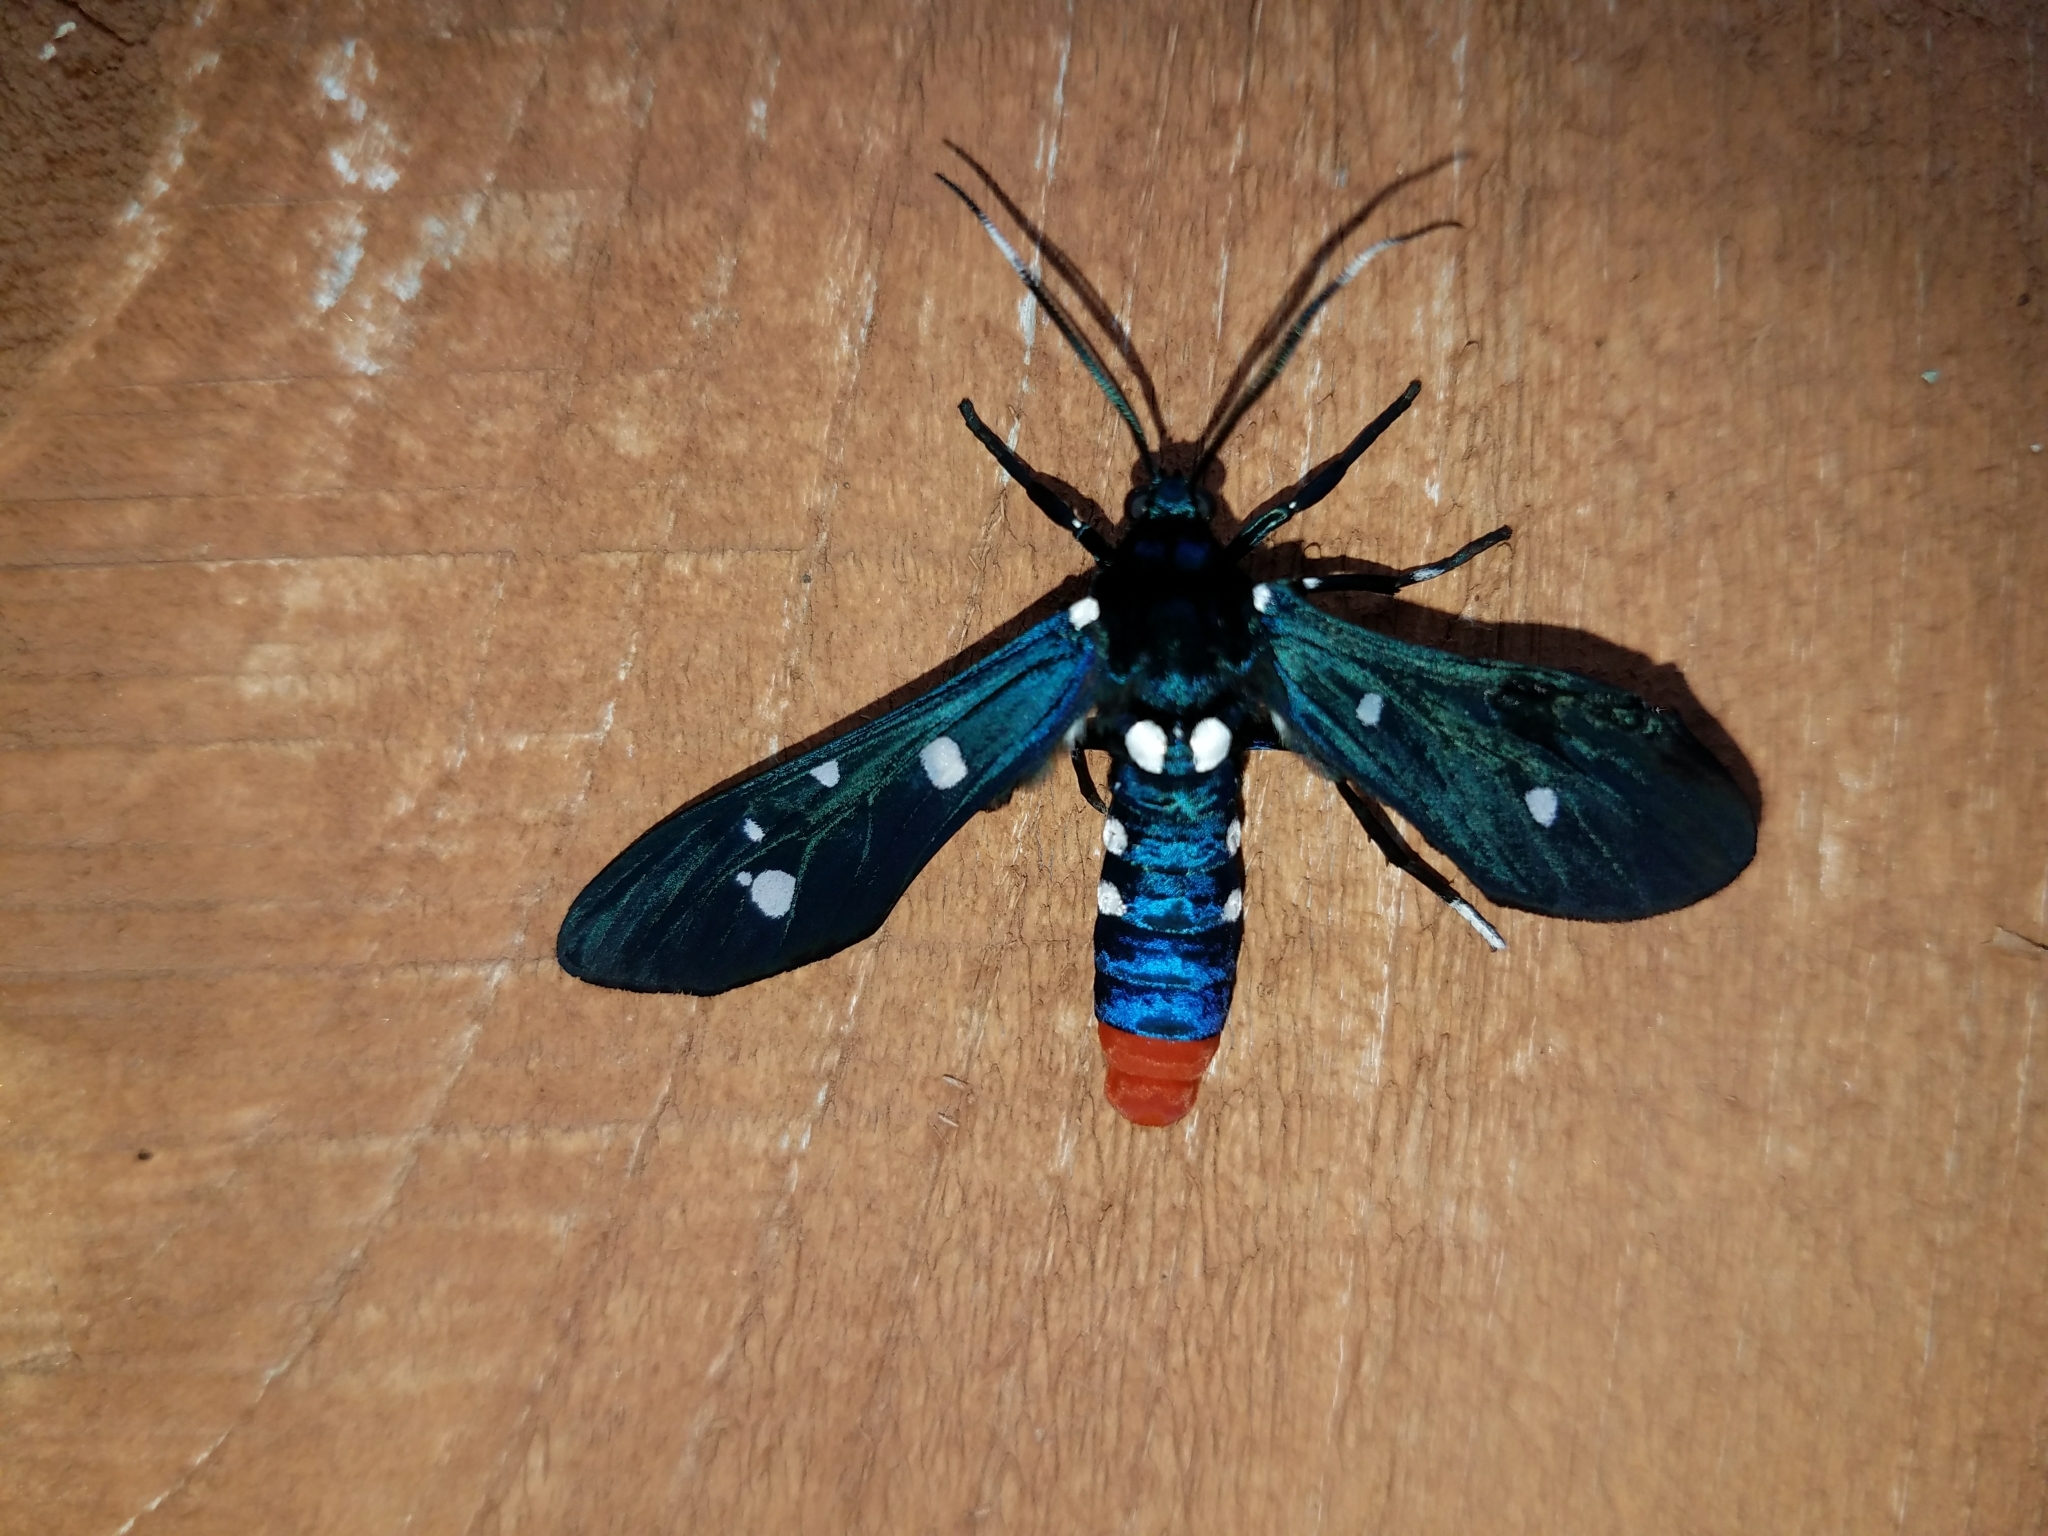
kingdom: Animalia
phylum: Arthropoda
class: Insecta
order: Lepidoptera
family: Erebidae
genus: Syntomeida
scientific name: Syntomeida epilais
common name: Polka-dot wasp moth
